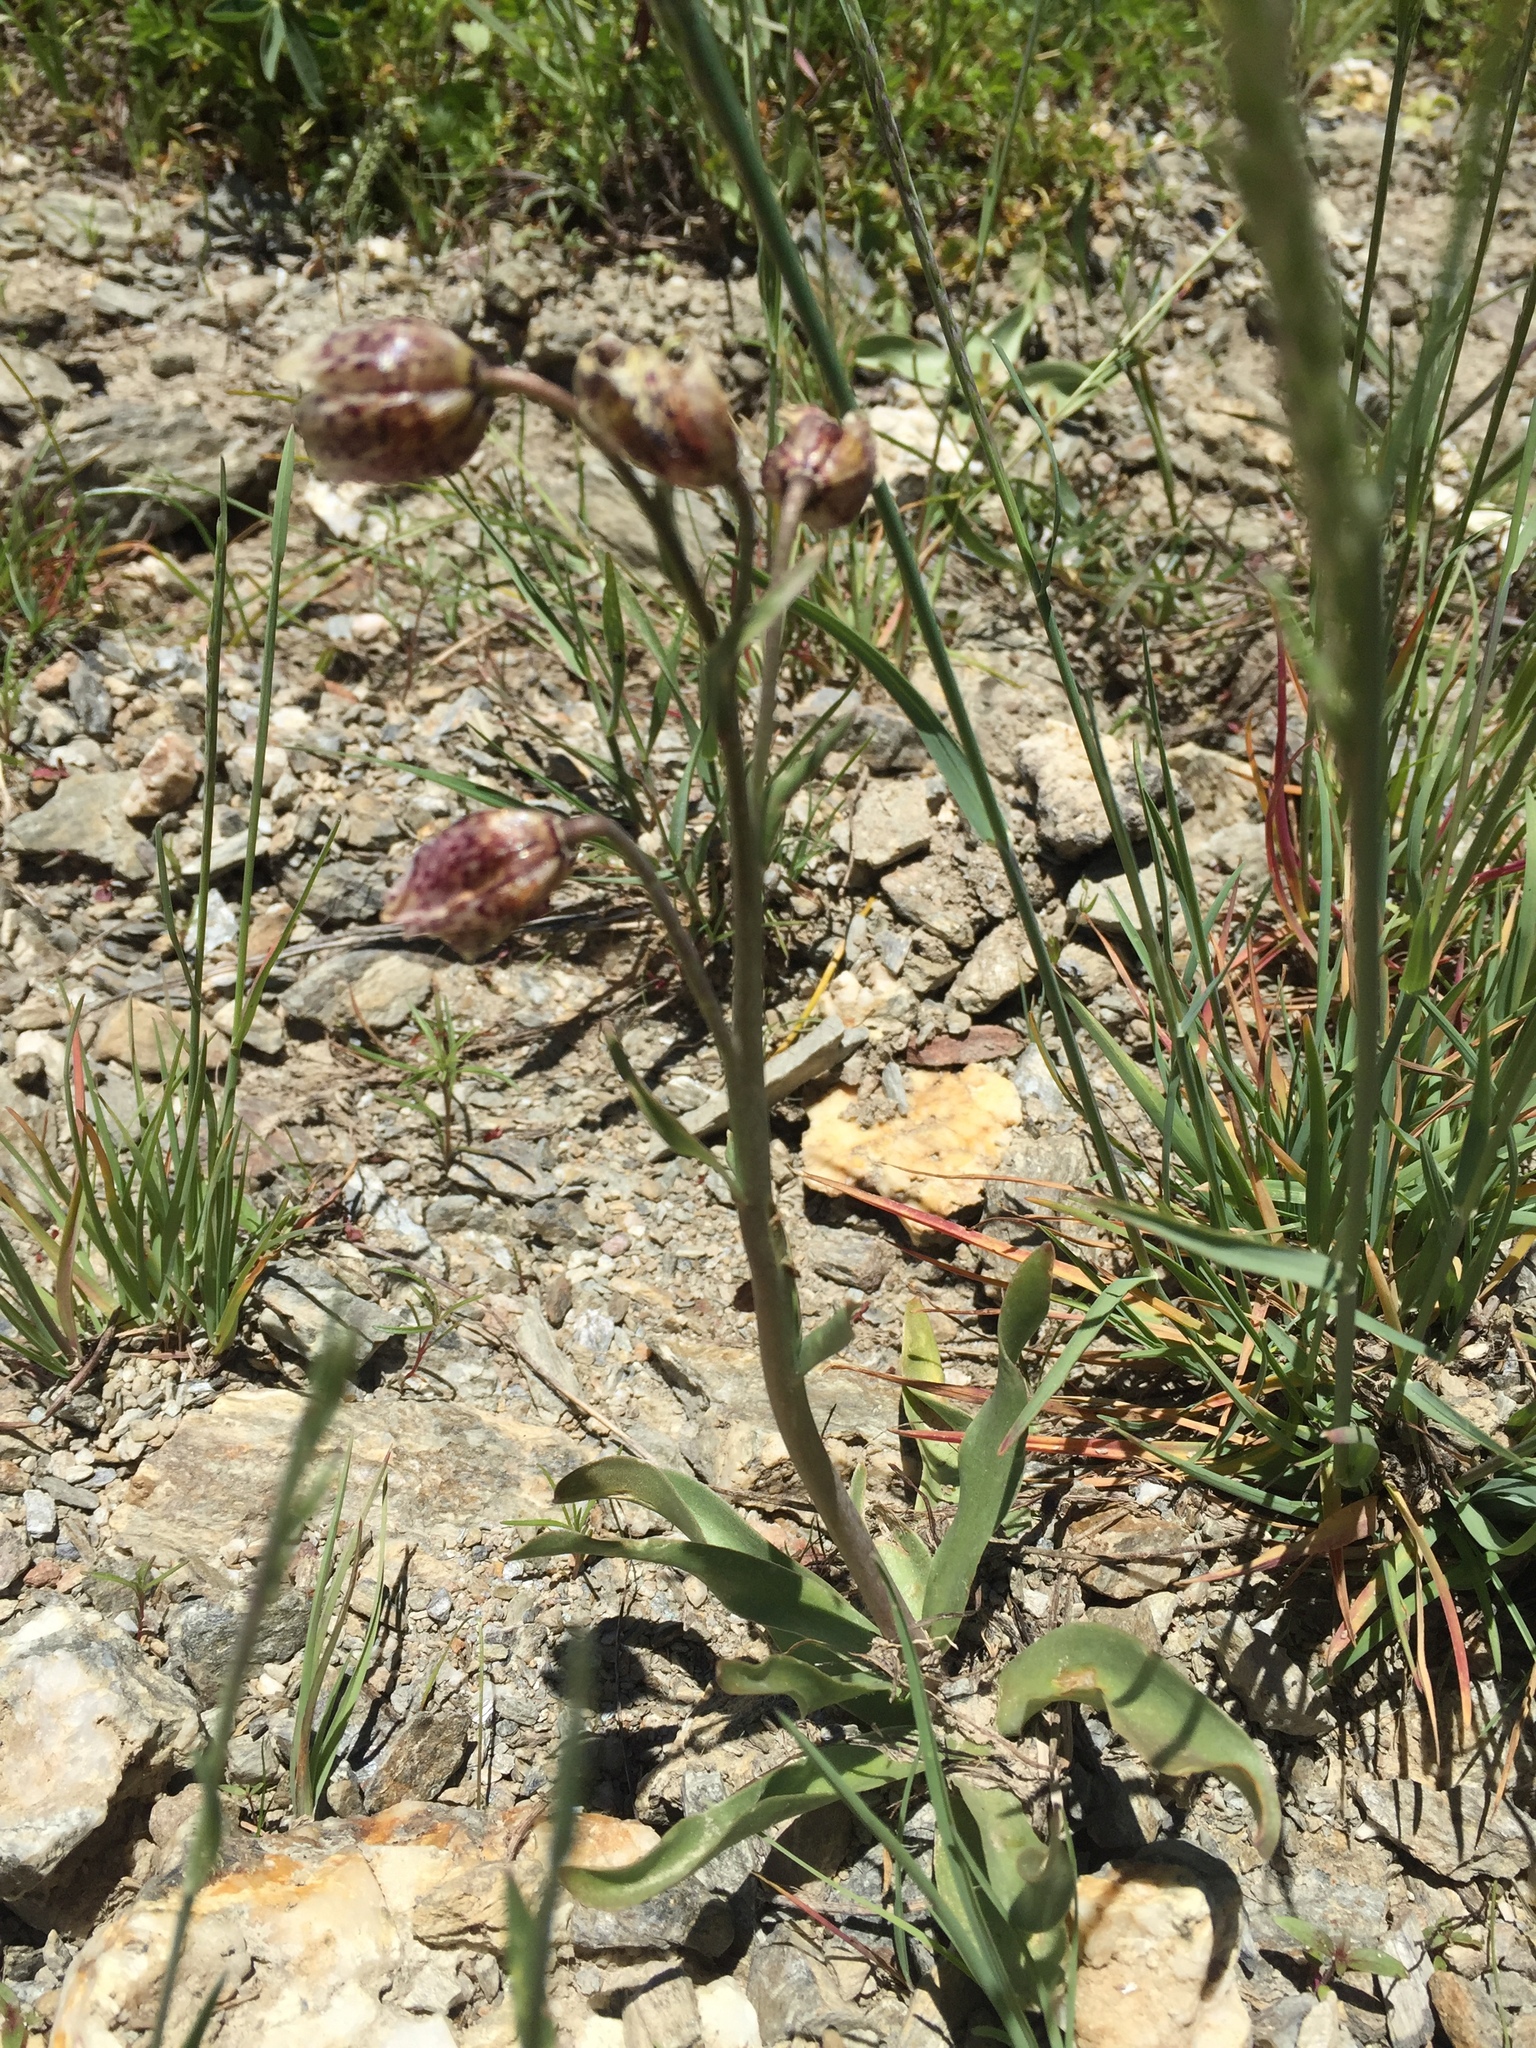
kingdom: Plantae
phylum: Tracheophyta
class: Liliopsida
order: Liliales
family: Liliaceae
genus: Fritillaria
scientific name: Fritillaria purdyi
